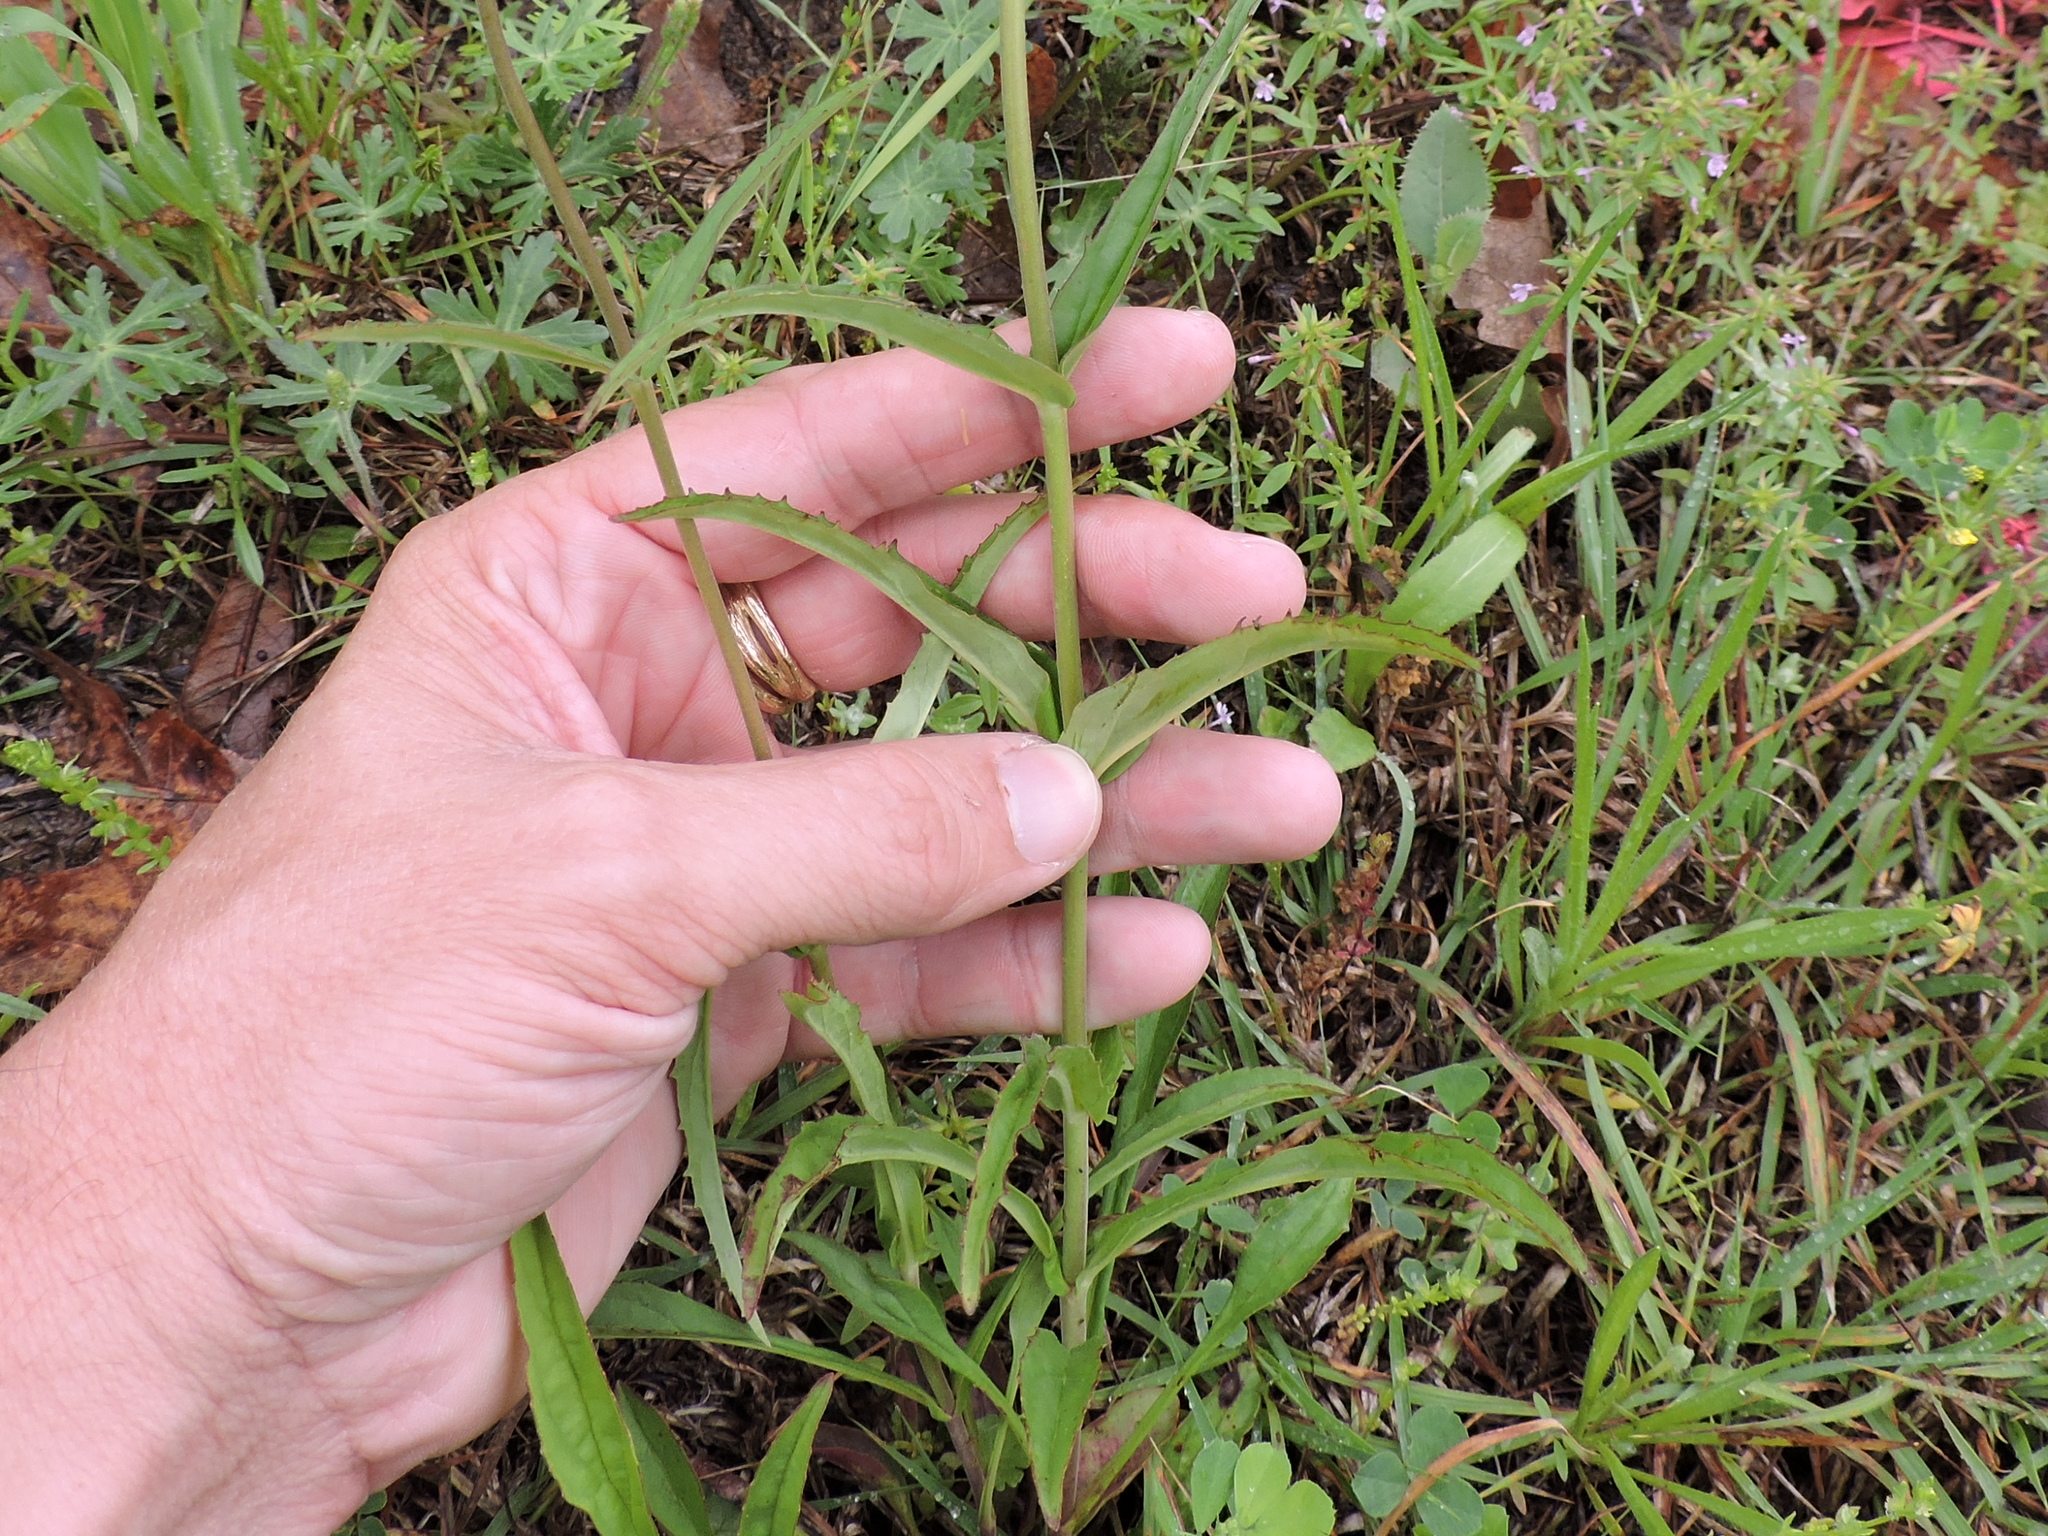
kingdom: Plantae
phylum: Tracheophyta
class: Magnoliopsida
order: Lamiales
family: Plantaginaceae
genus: Penstemon
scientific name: Penstemon laxiflorus
